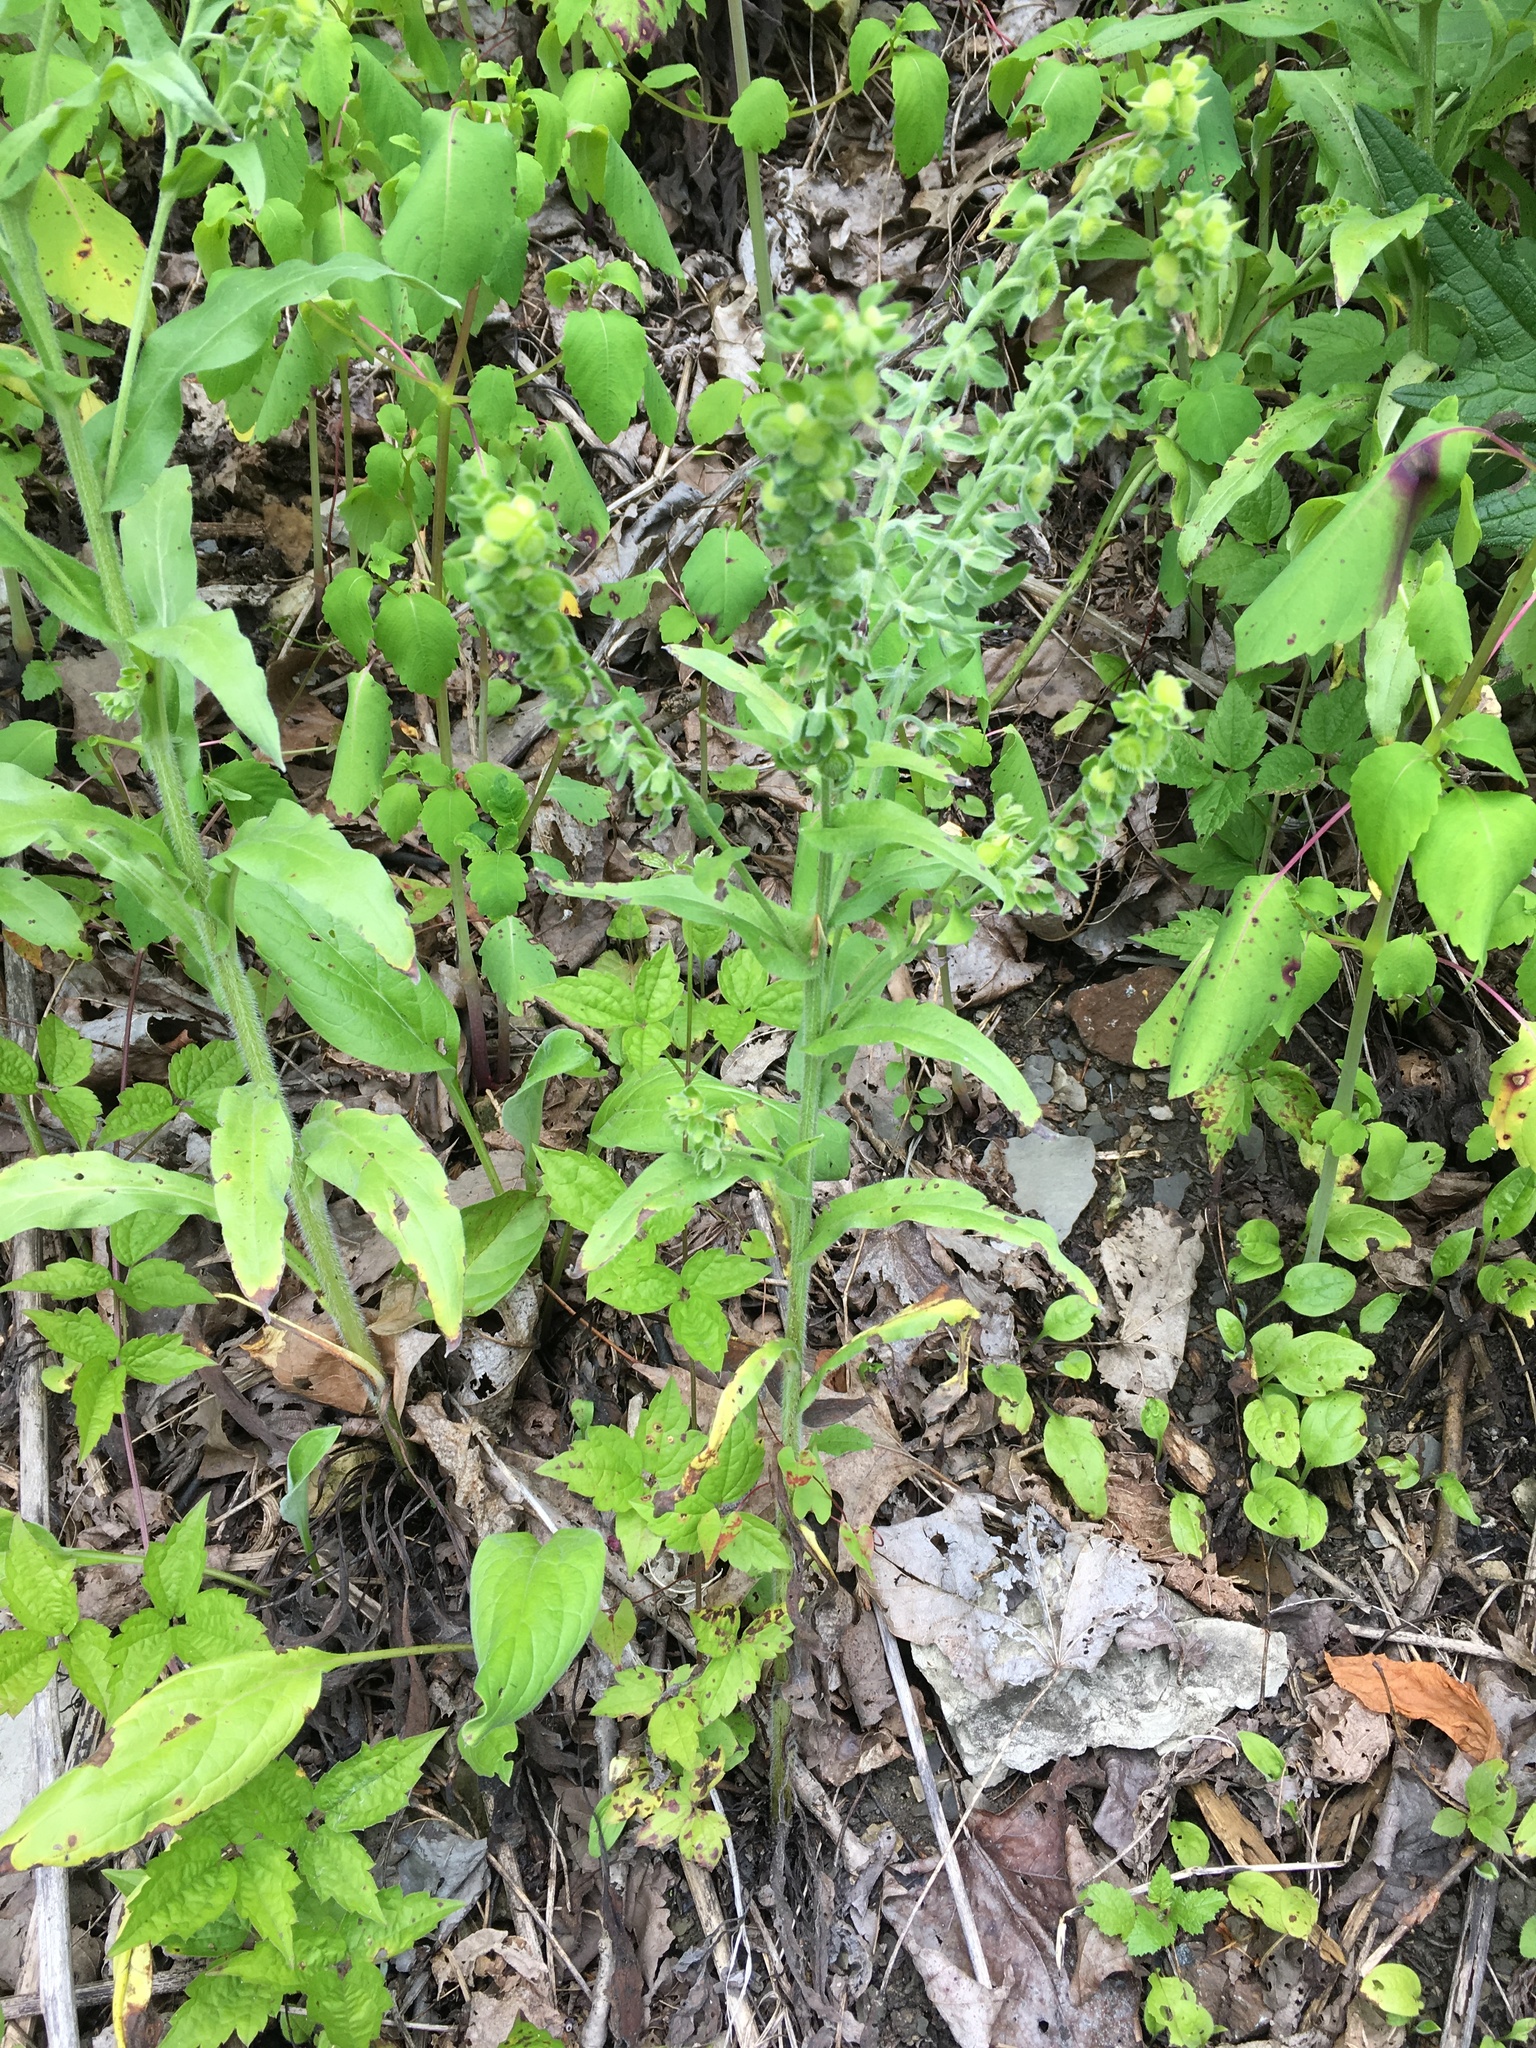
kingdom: Plantae
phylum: Tracheophyta
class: Magnoliopsida
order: Boraginales
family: Boraginaceae
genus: Cynoglossum
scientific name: Cynoglossum officinale
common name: Hound's-tongue
